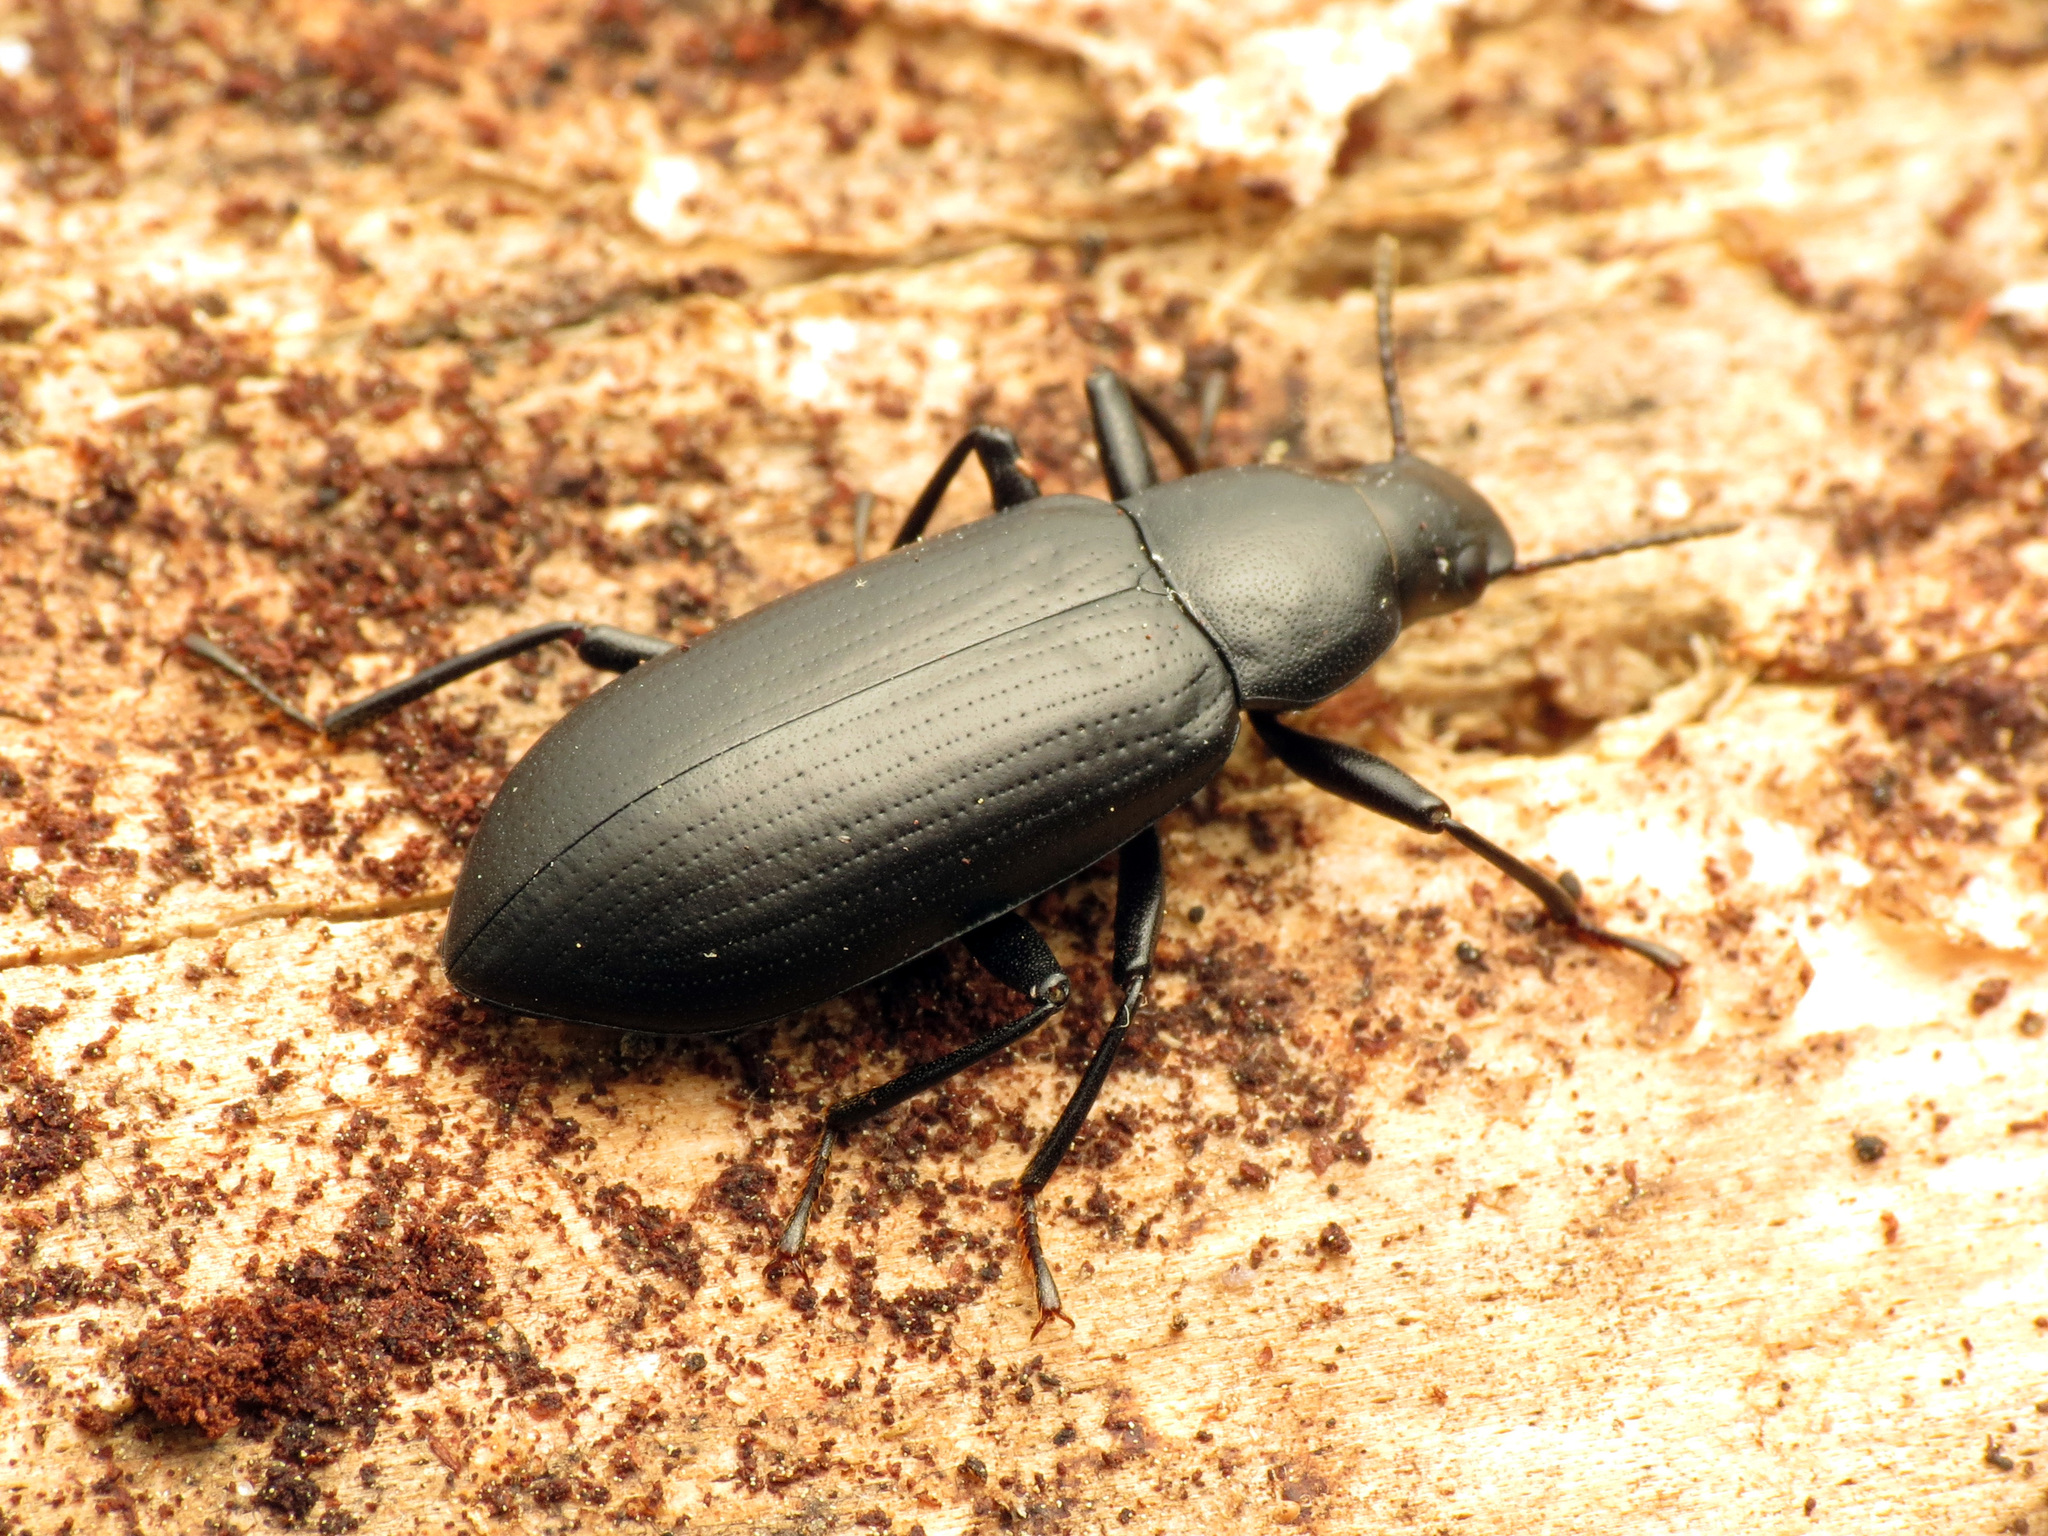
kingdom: Animalia
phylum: Arthropoda
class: Insecta
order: Coleoptera
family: Tenebrionidae
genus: Alobates
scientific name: Alobates pensylvanicus
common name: False mealworm beetle
